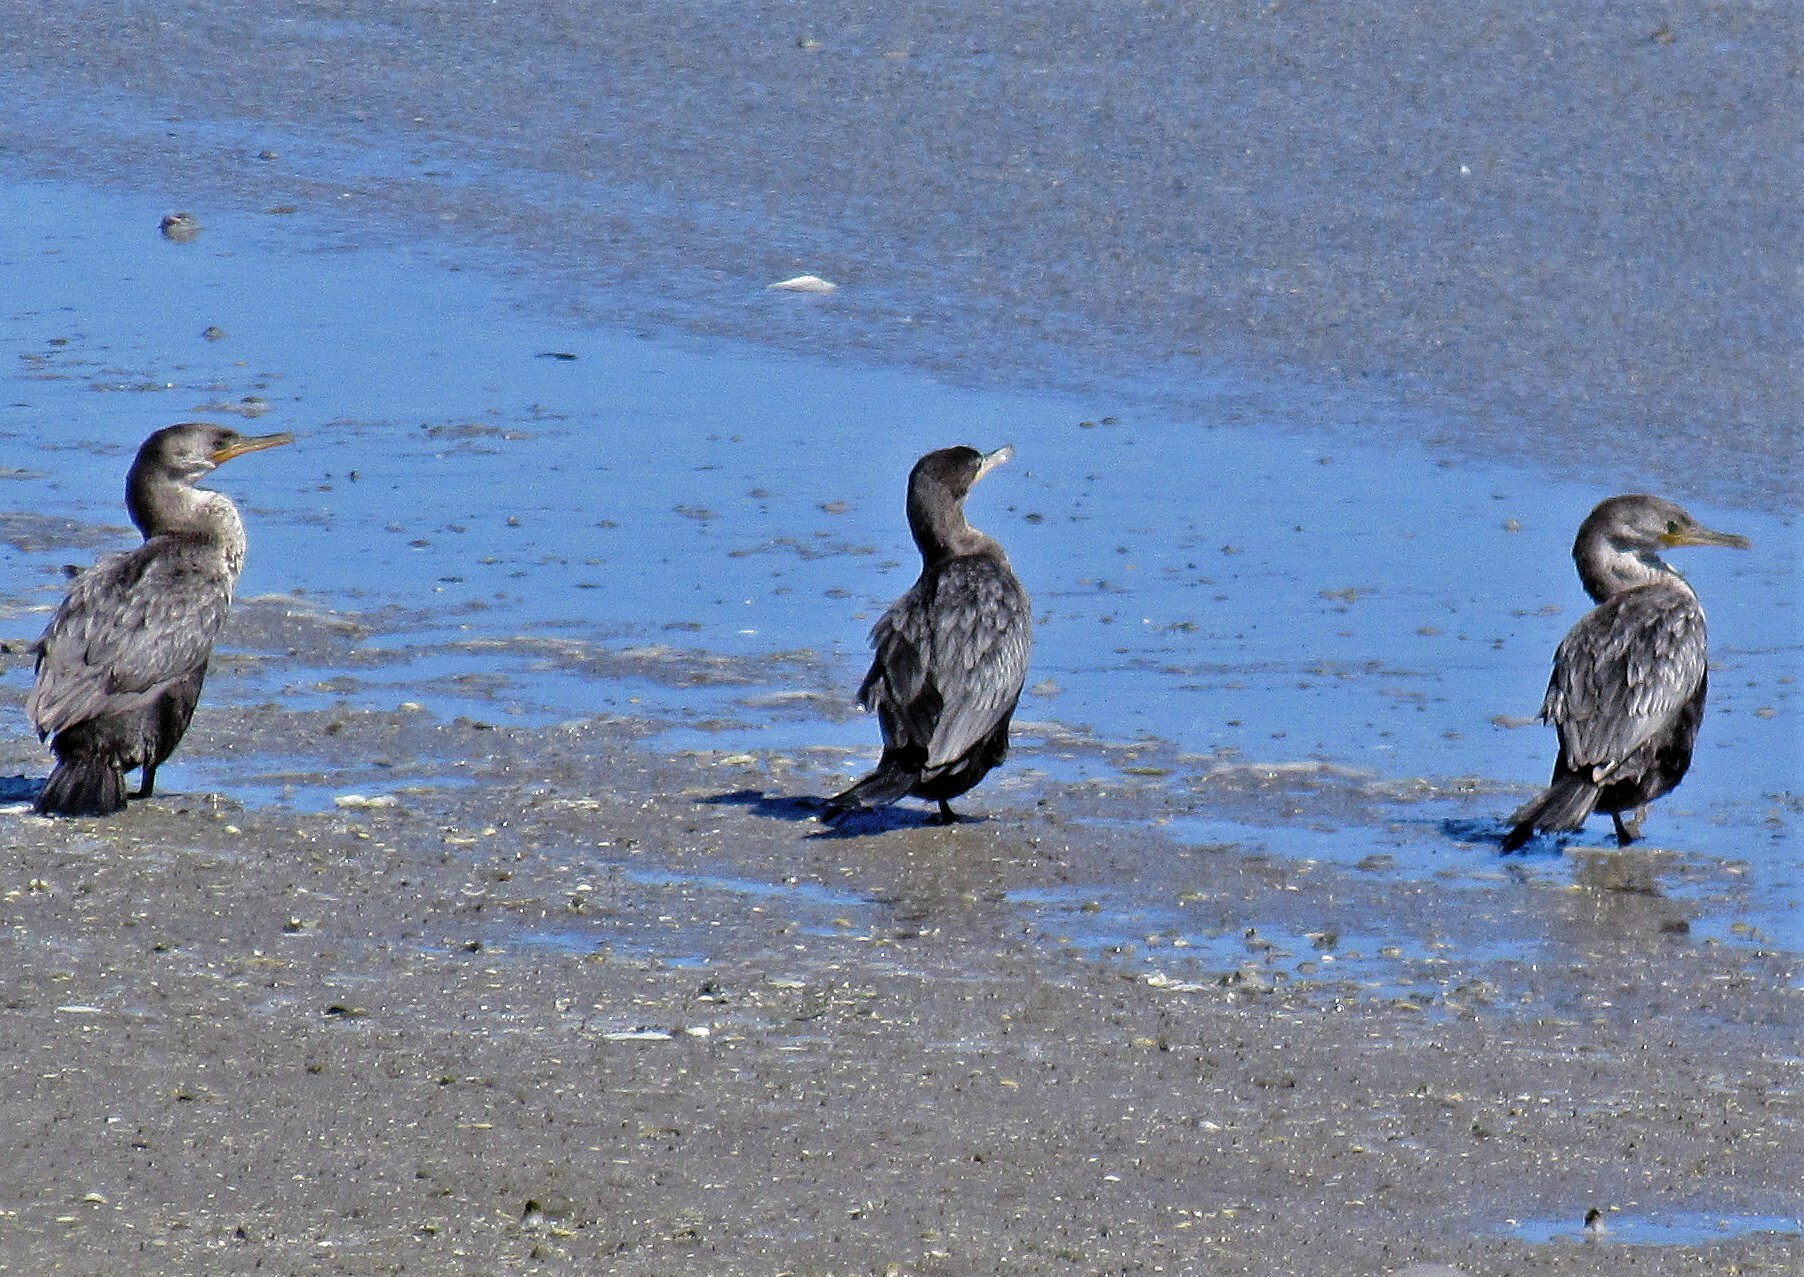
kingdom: Animalia
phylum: Chordata
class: Aves
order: Suliformes
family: Phalacrocoracidae
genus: Phalacrocorax
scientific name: Phalacrocorax brasilianus
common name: Neotropic cormorant
